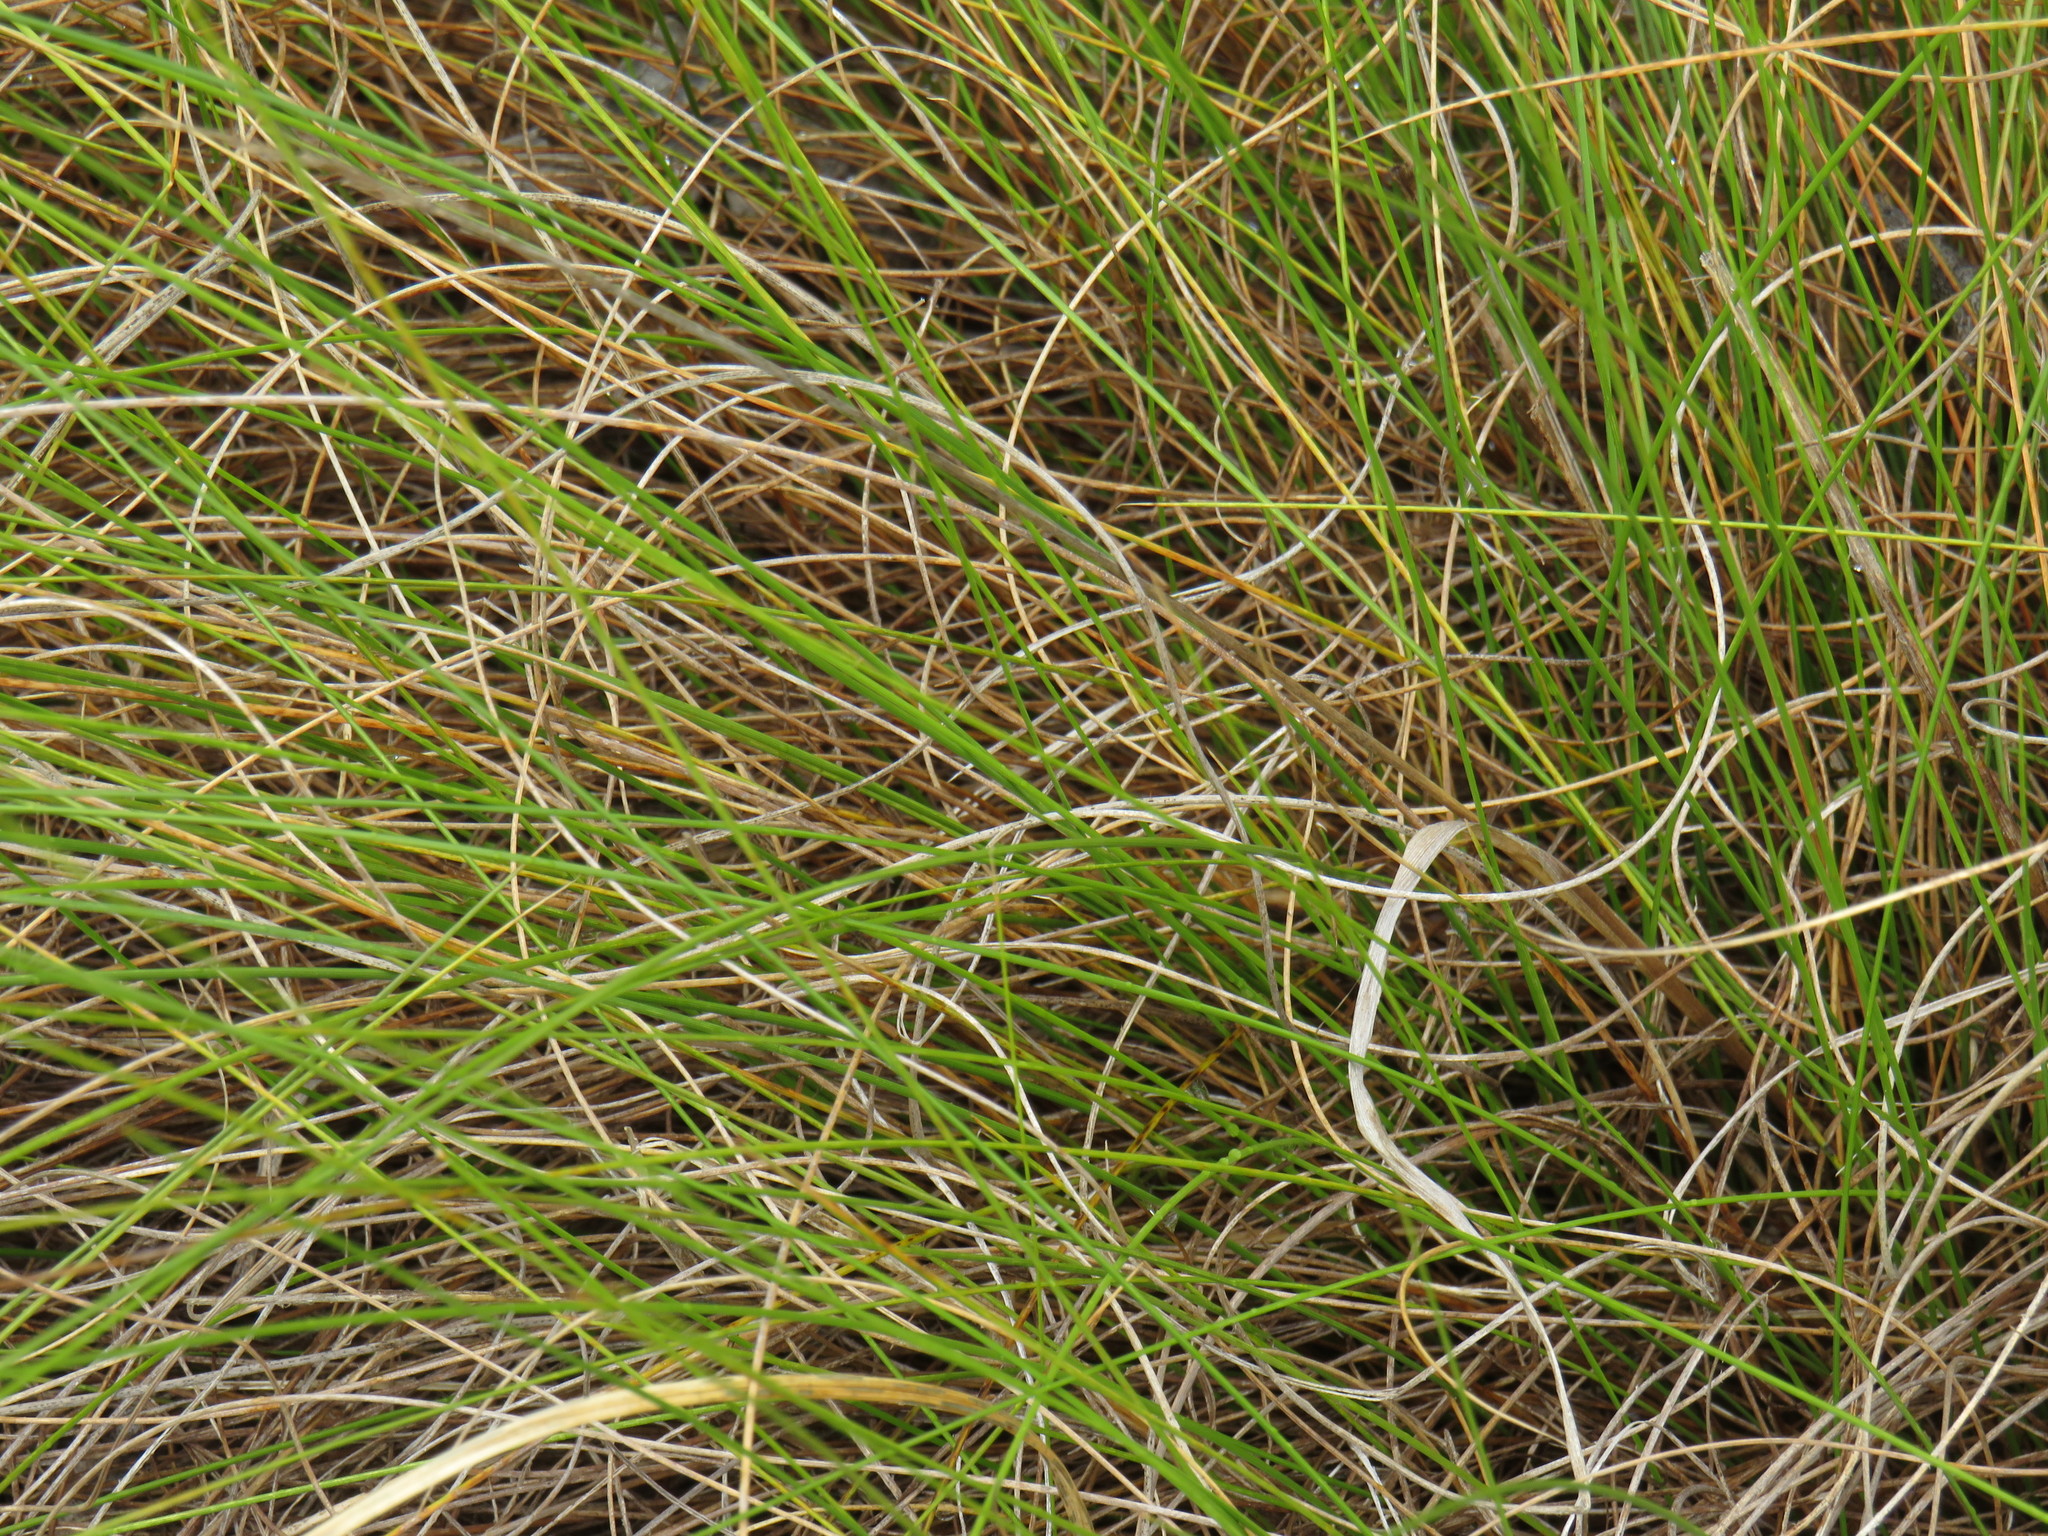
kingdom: Plantae
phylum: Tracheophyta
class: Liliopsida
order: Poales
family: Poaceae
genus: Tenaxia
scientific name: Tenaxia stricta
